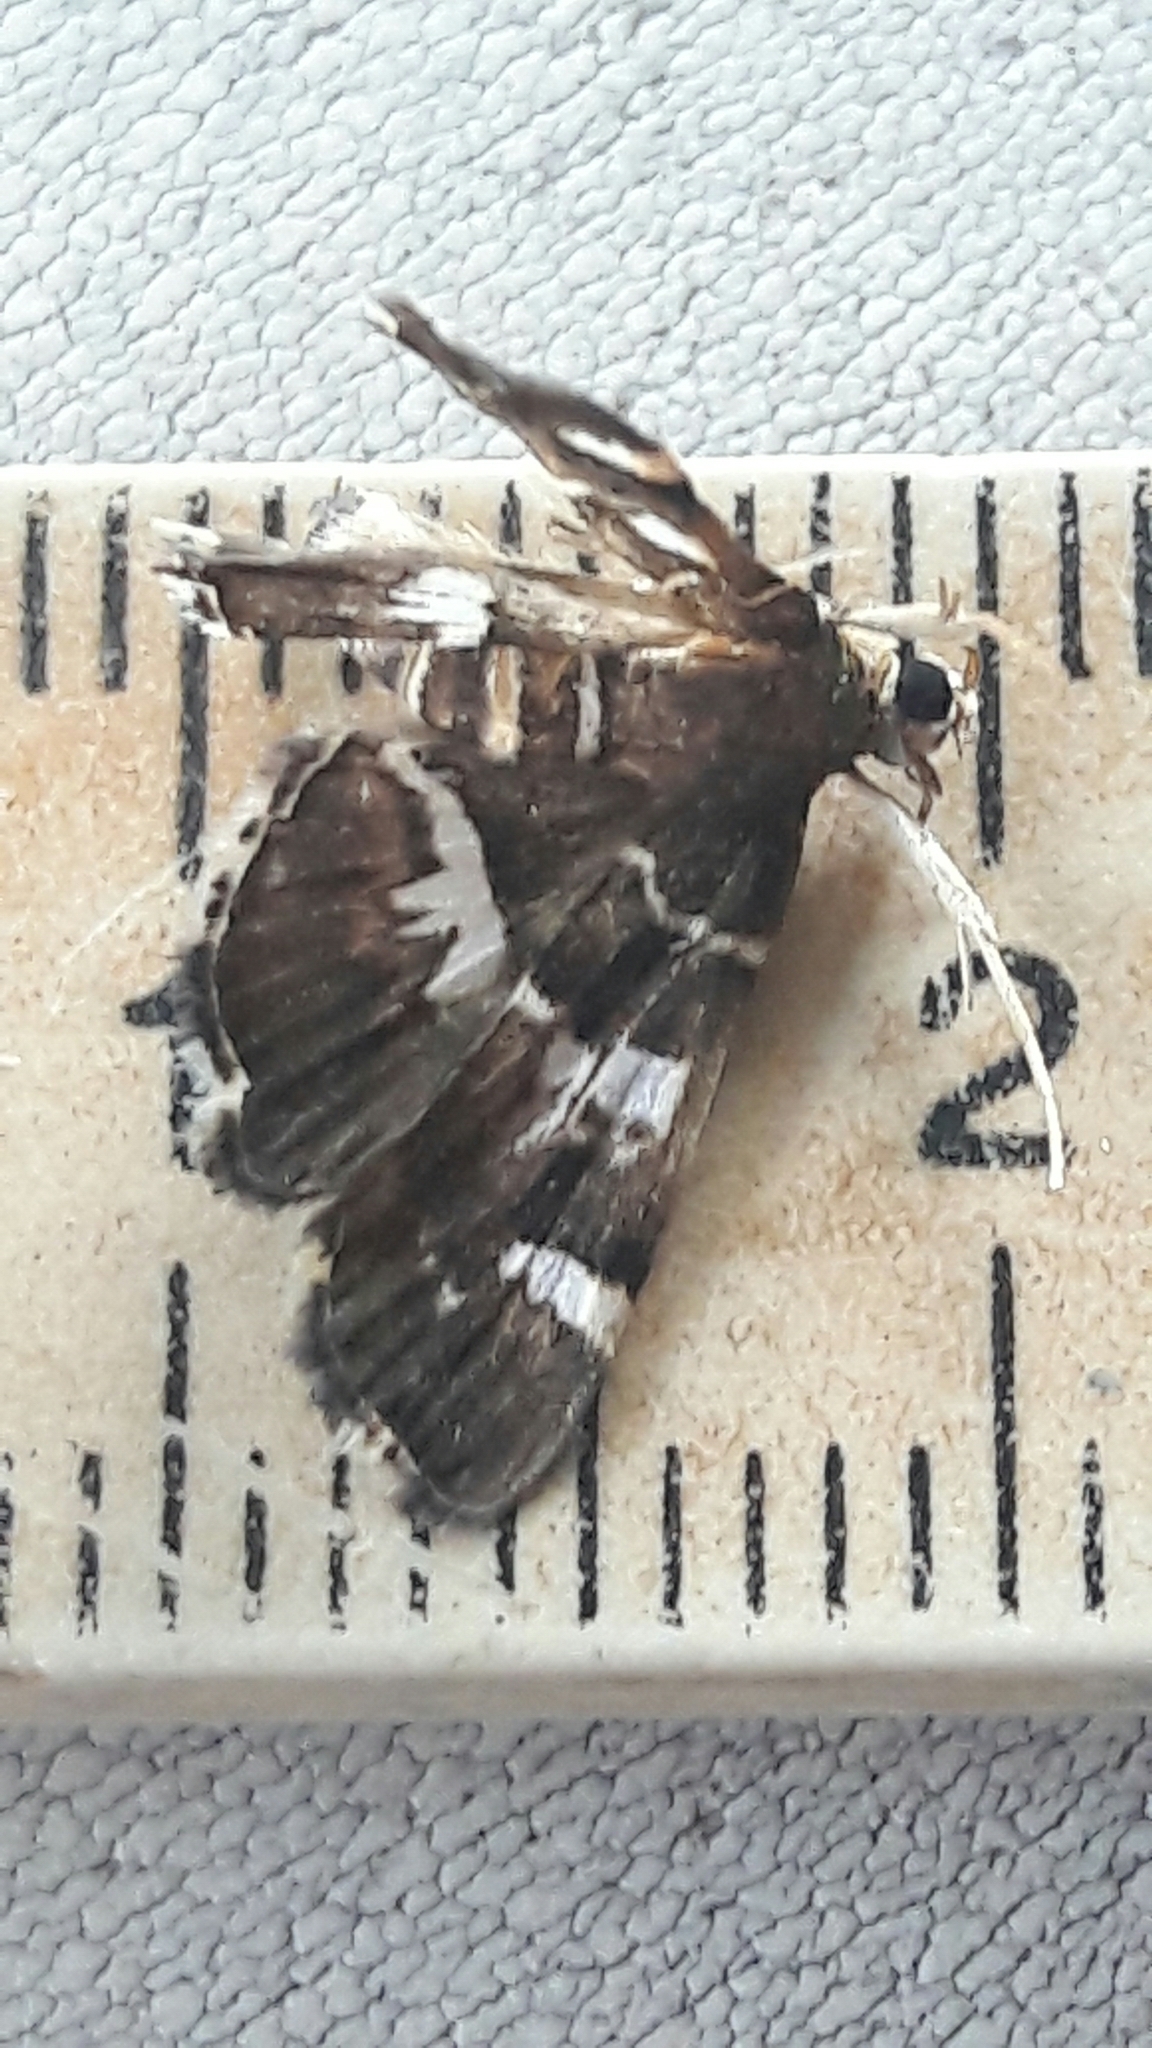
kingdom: Animalia
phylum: Arthropoda
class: Insecta
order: Lepidoptera
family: Crambidae
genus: Hymenia
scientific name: Hymenia perspectalis
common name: Spotted beet webworm
